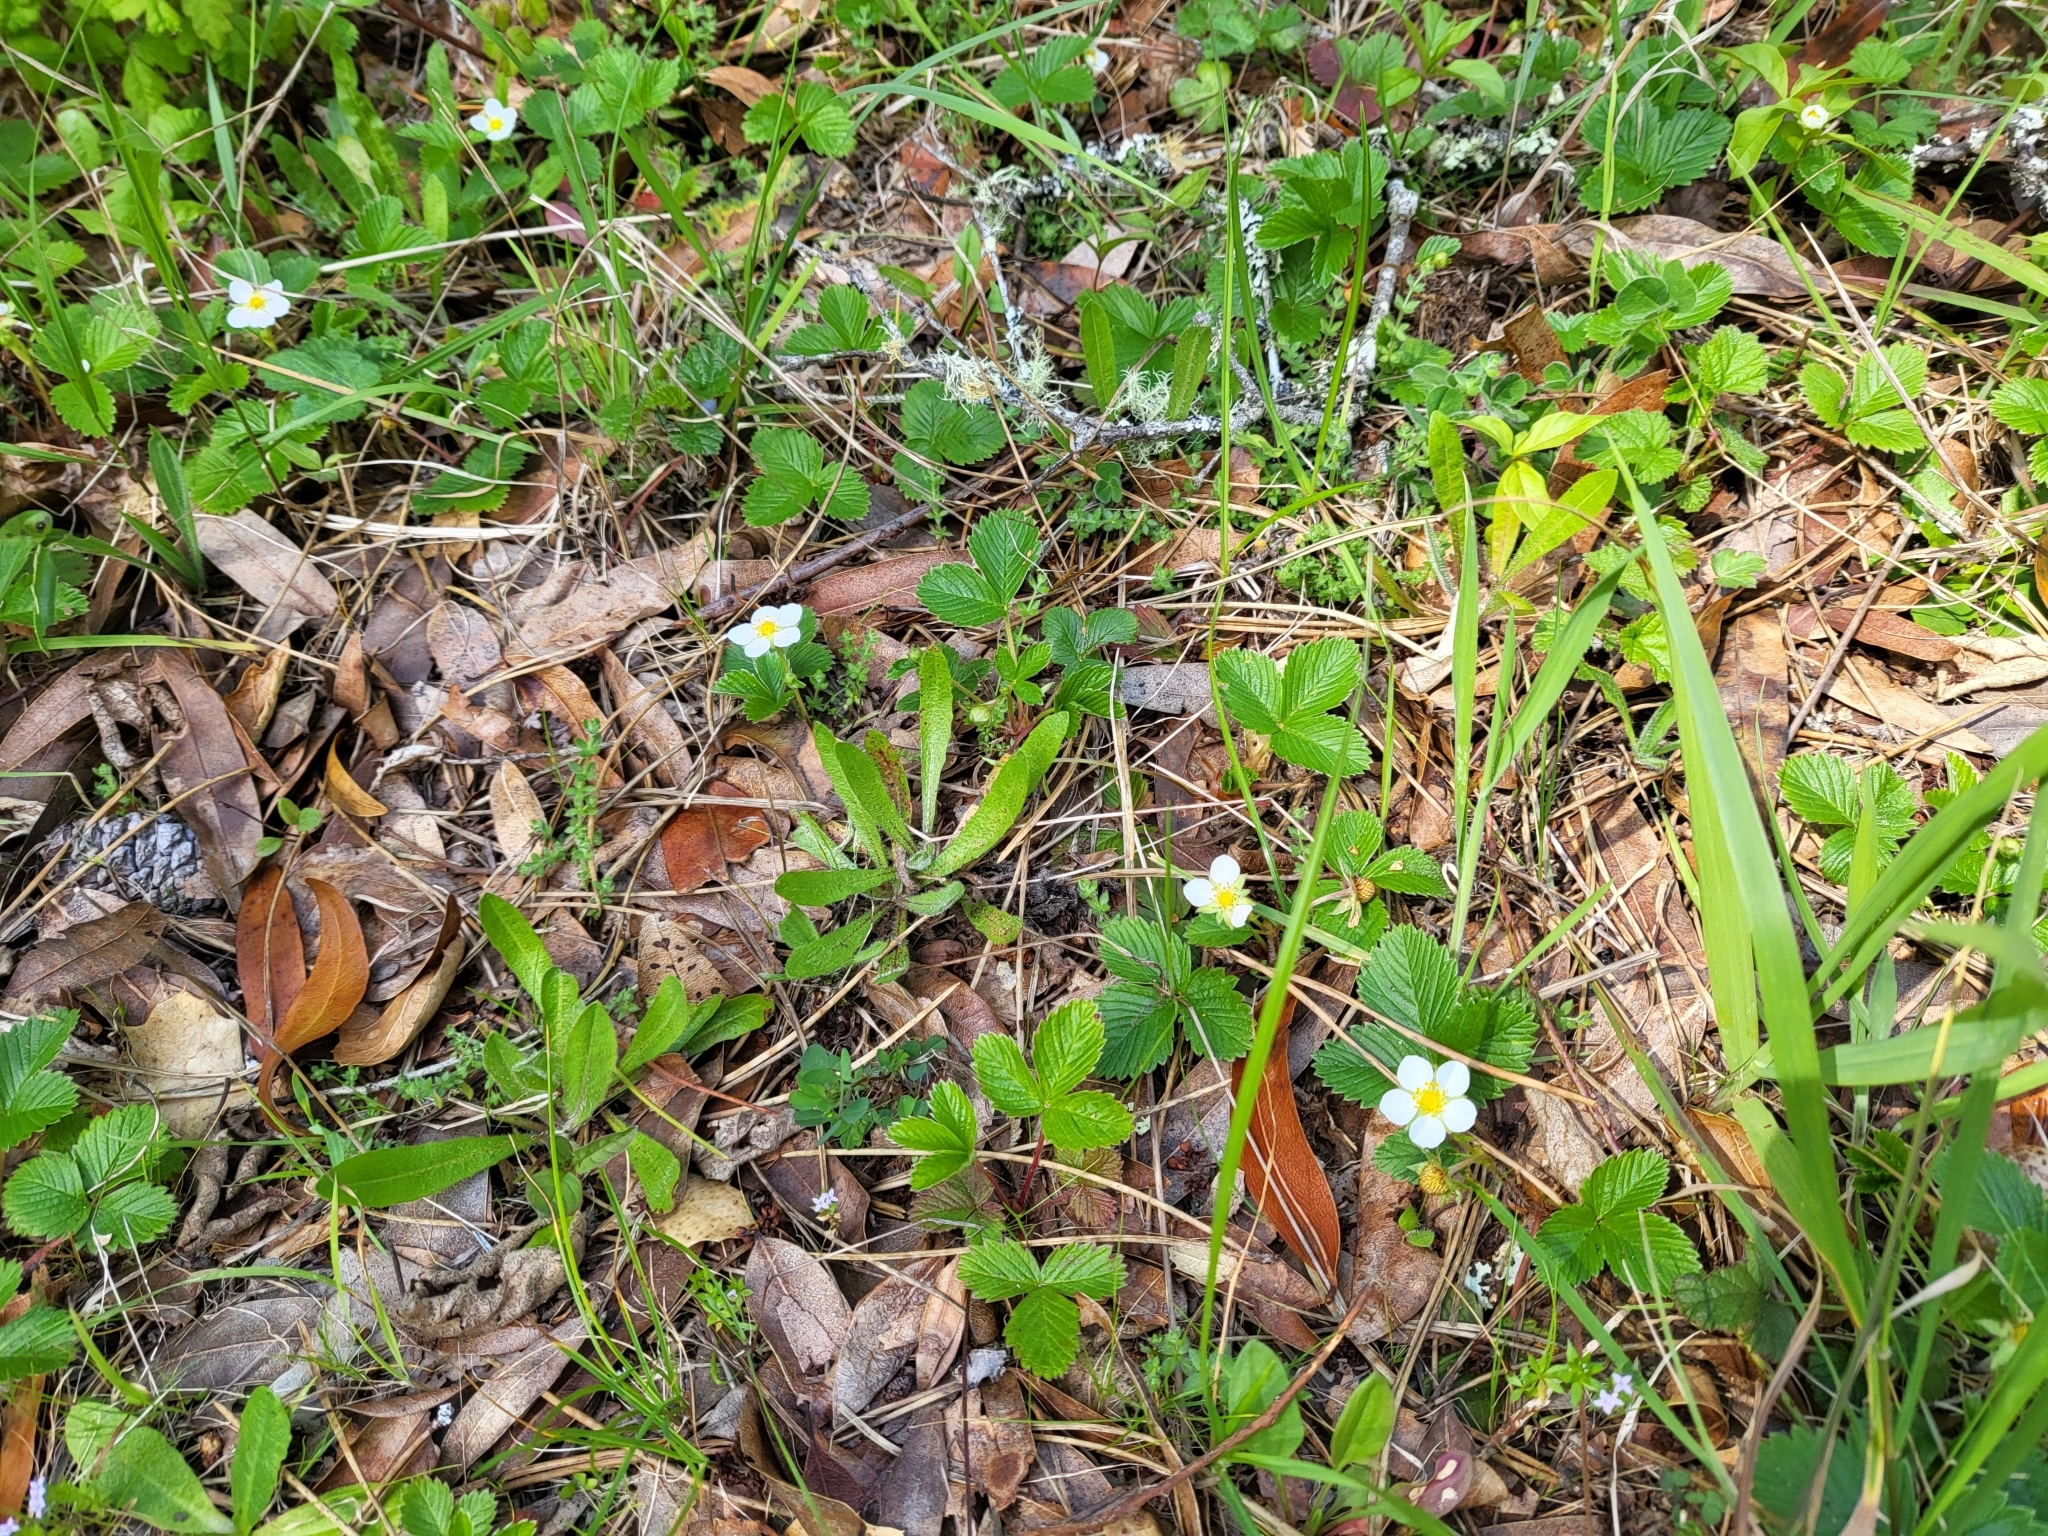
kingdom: Plantae
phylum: Tracheophyta
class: Magnoliopsida
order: Rosales
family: Rosaceae
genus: Fragaria
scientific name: Fragaria vesca
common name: Wild strawberry
